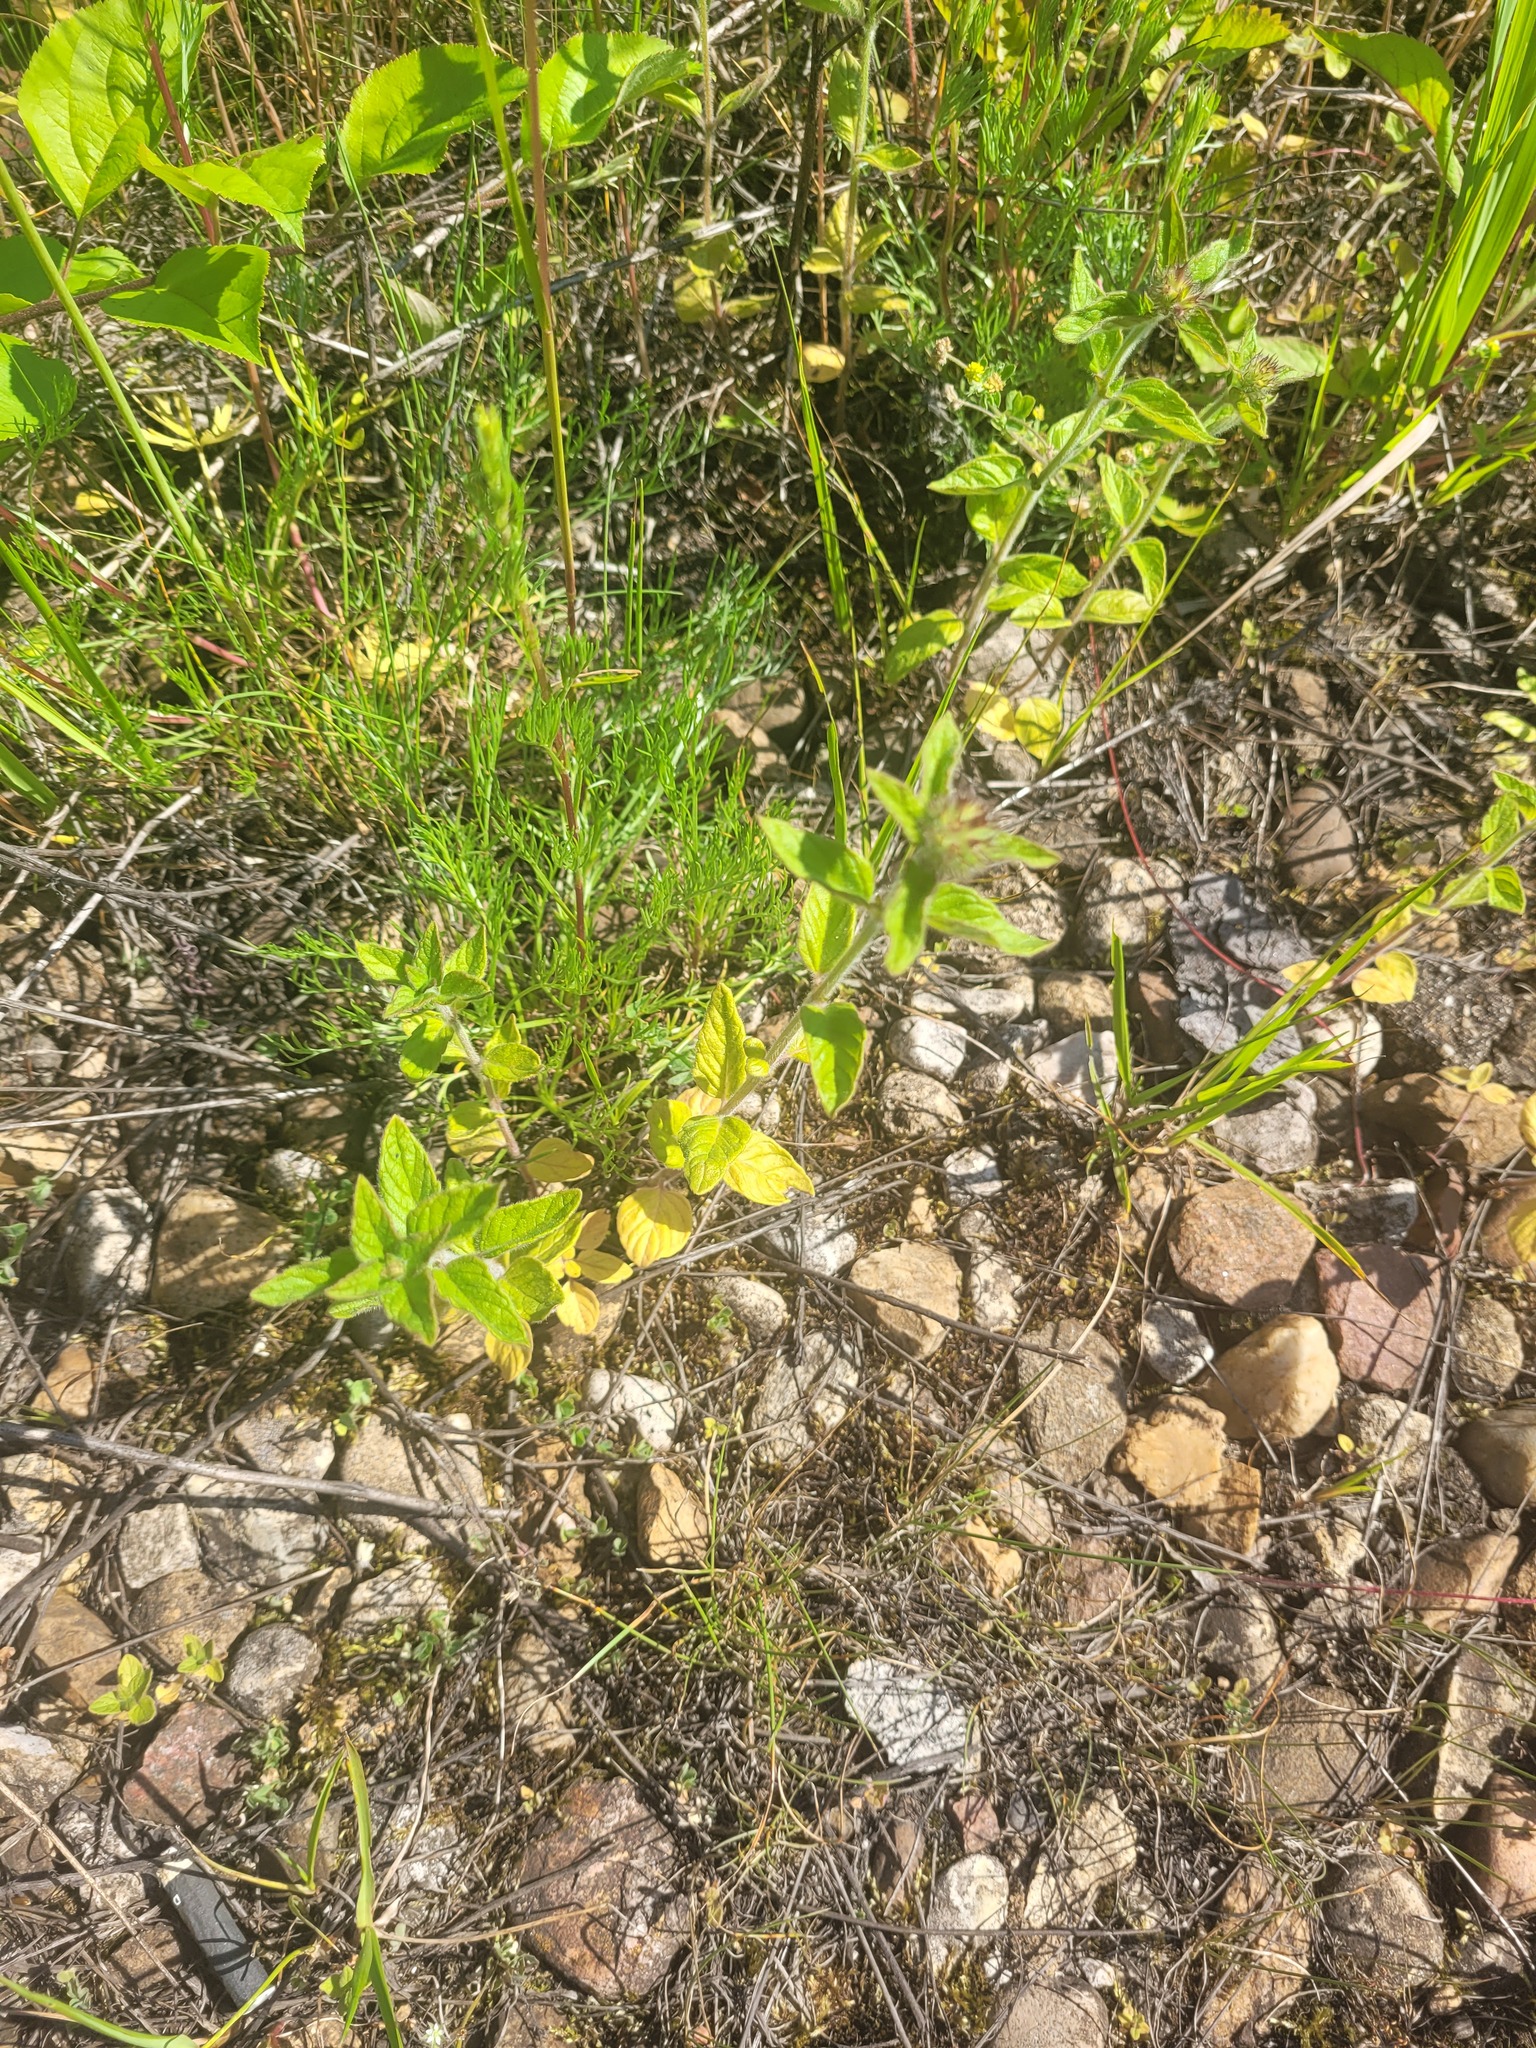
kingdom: Plantae
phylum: Tracheophyta
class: Magnoliopsida
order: Lamiales
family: Lamiaceae
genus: Clinopodium
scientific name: Clinopodium vulgare
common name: Wild basil
